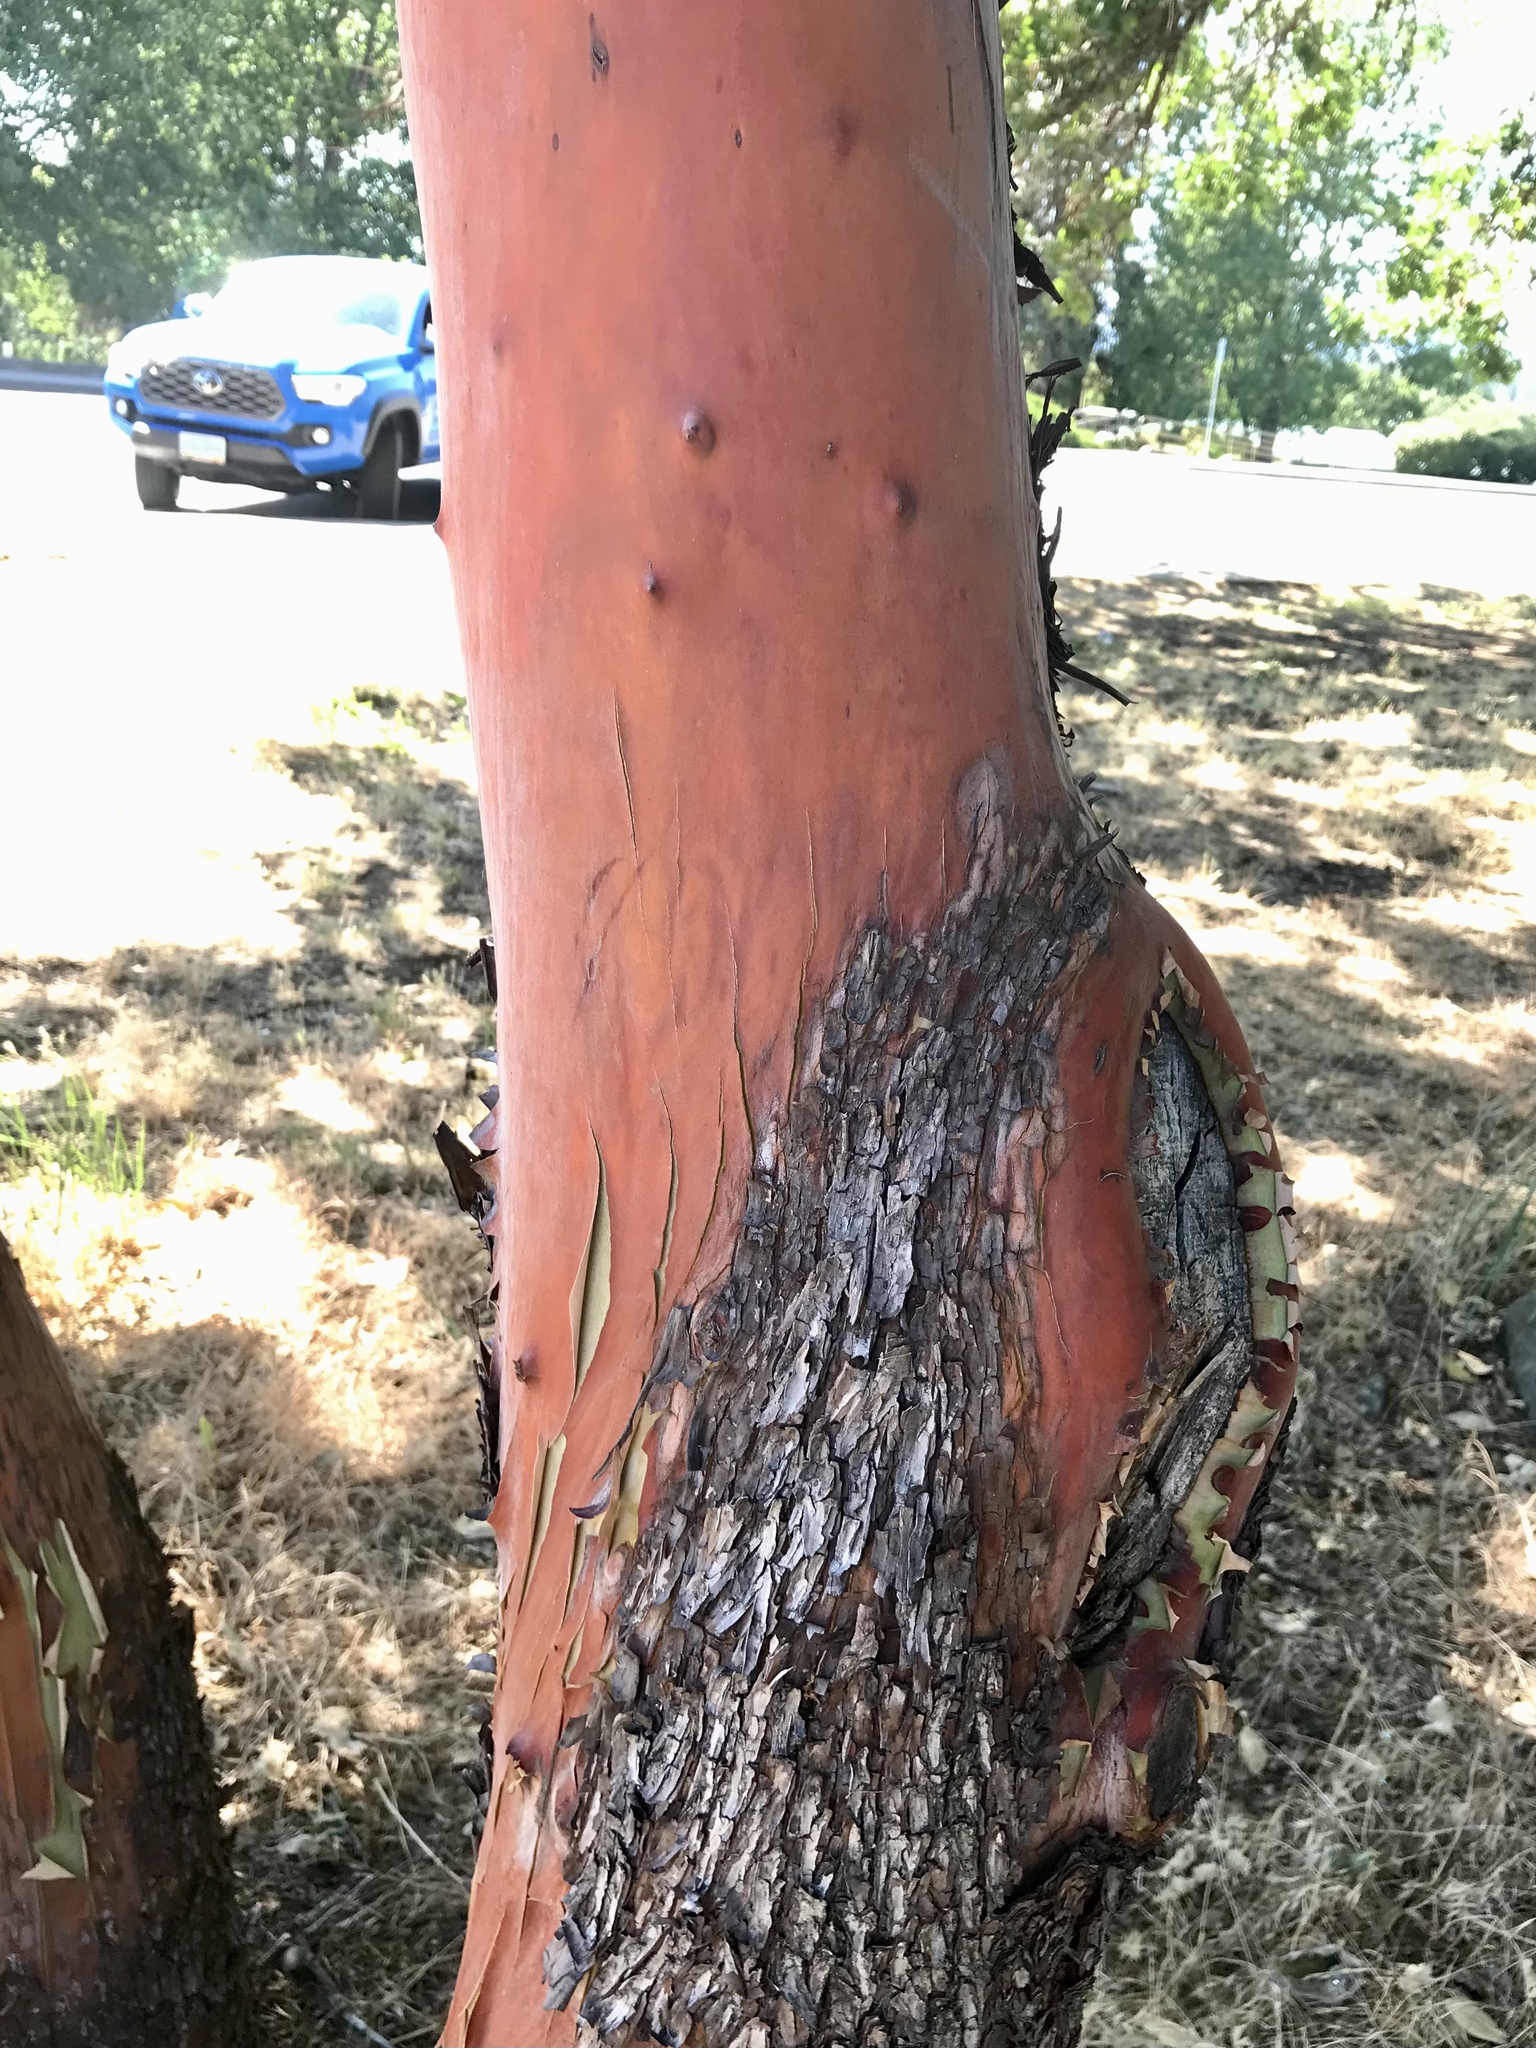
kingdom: Plantae
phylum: Tracheophyta
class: Magnoliopsida
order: Ericales
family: Ericaceae
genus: Arbutus
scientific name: Arbutus menziesii
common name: Pacific madrone
